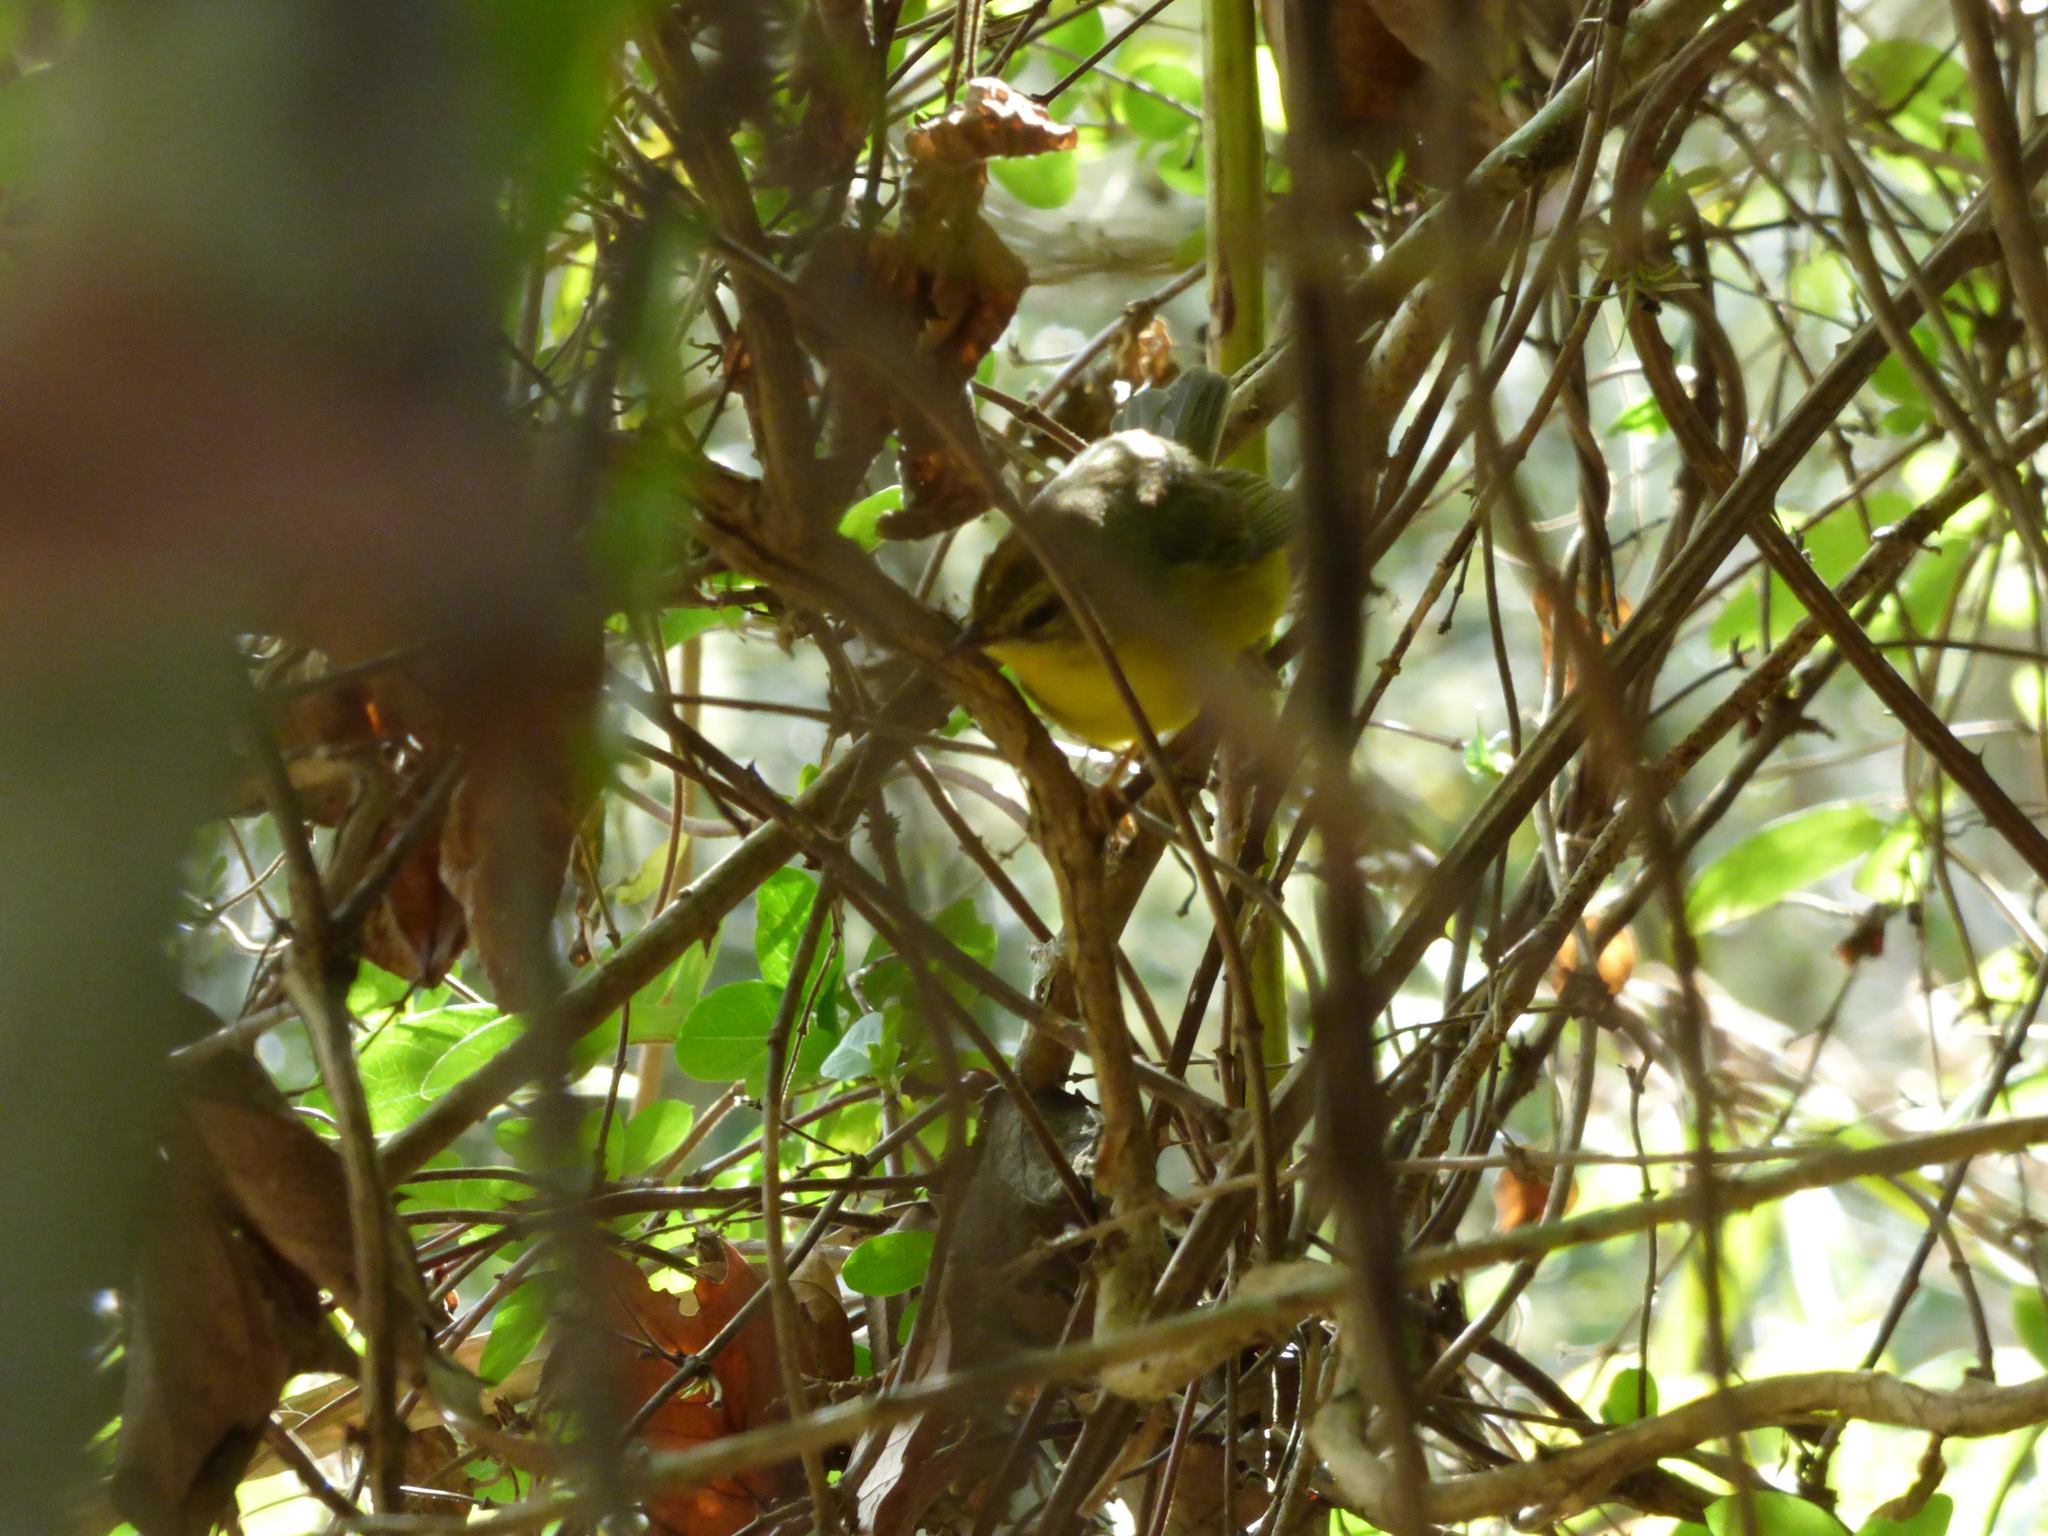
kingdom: Animalia
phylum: Chordata
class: Aves
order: Passeriformes
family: Parulidae
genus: Basileuterus
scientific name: Basileuterus culicivorus
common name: Golden-crowned warbler
